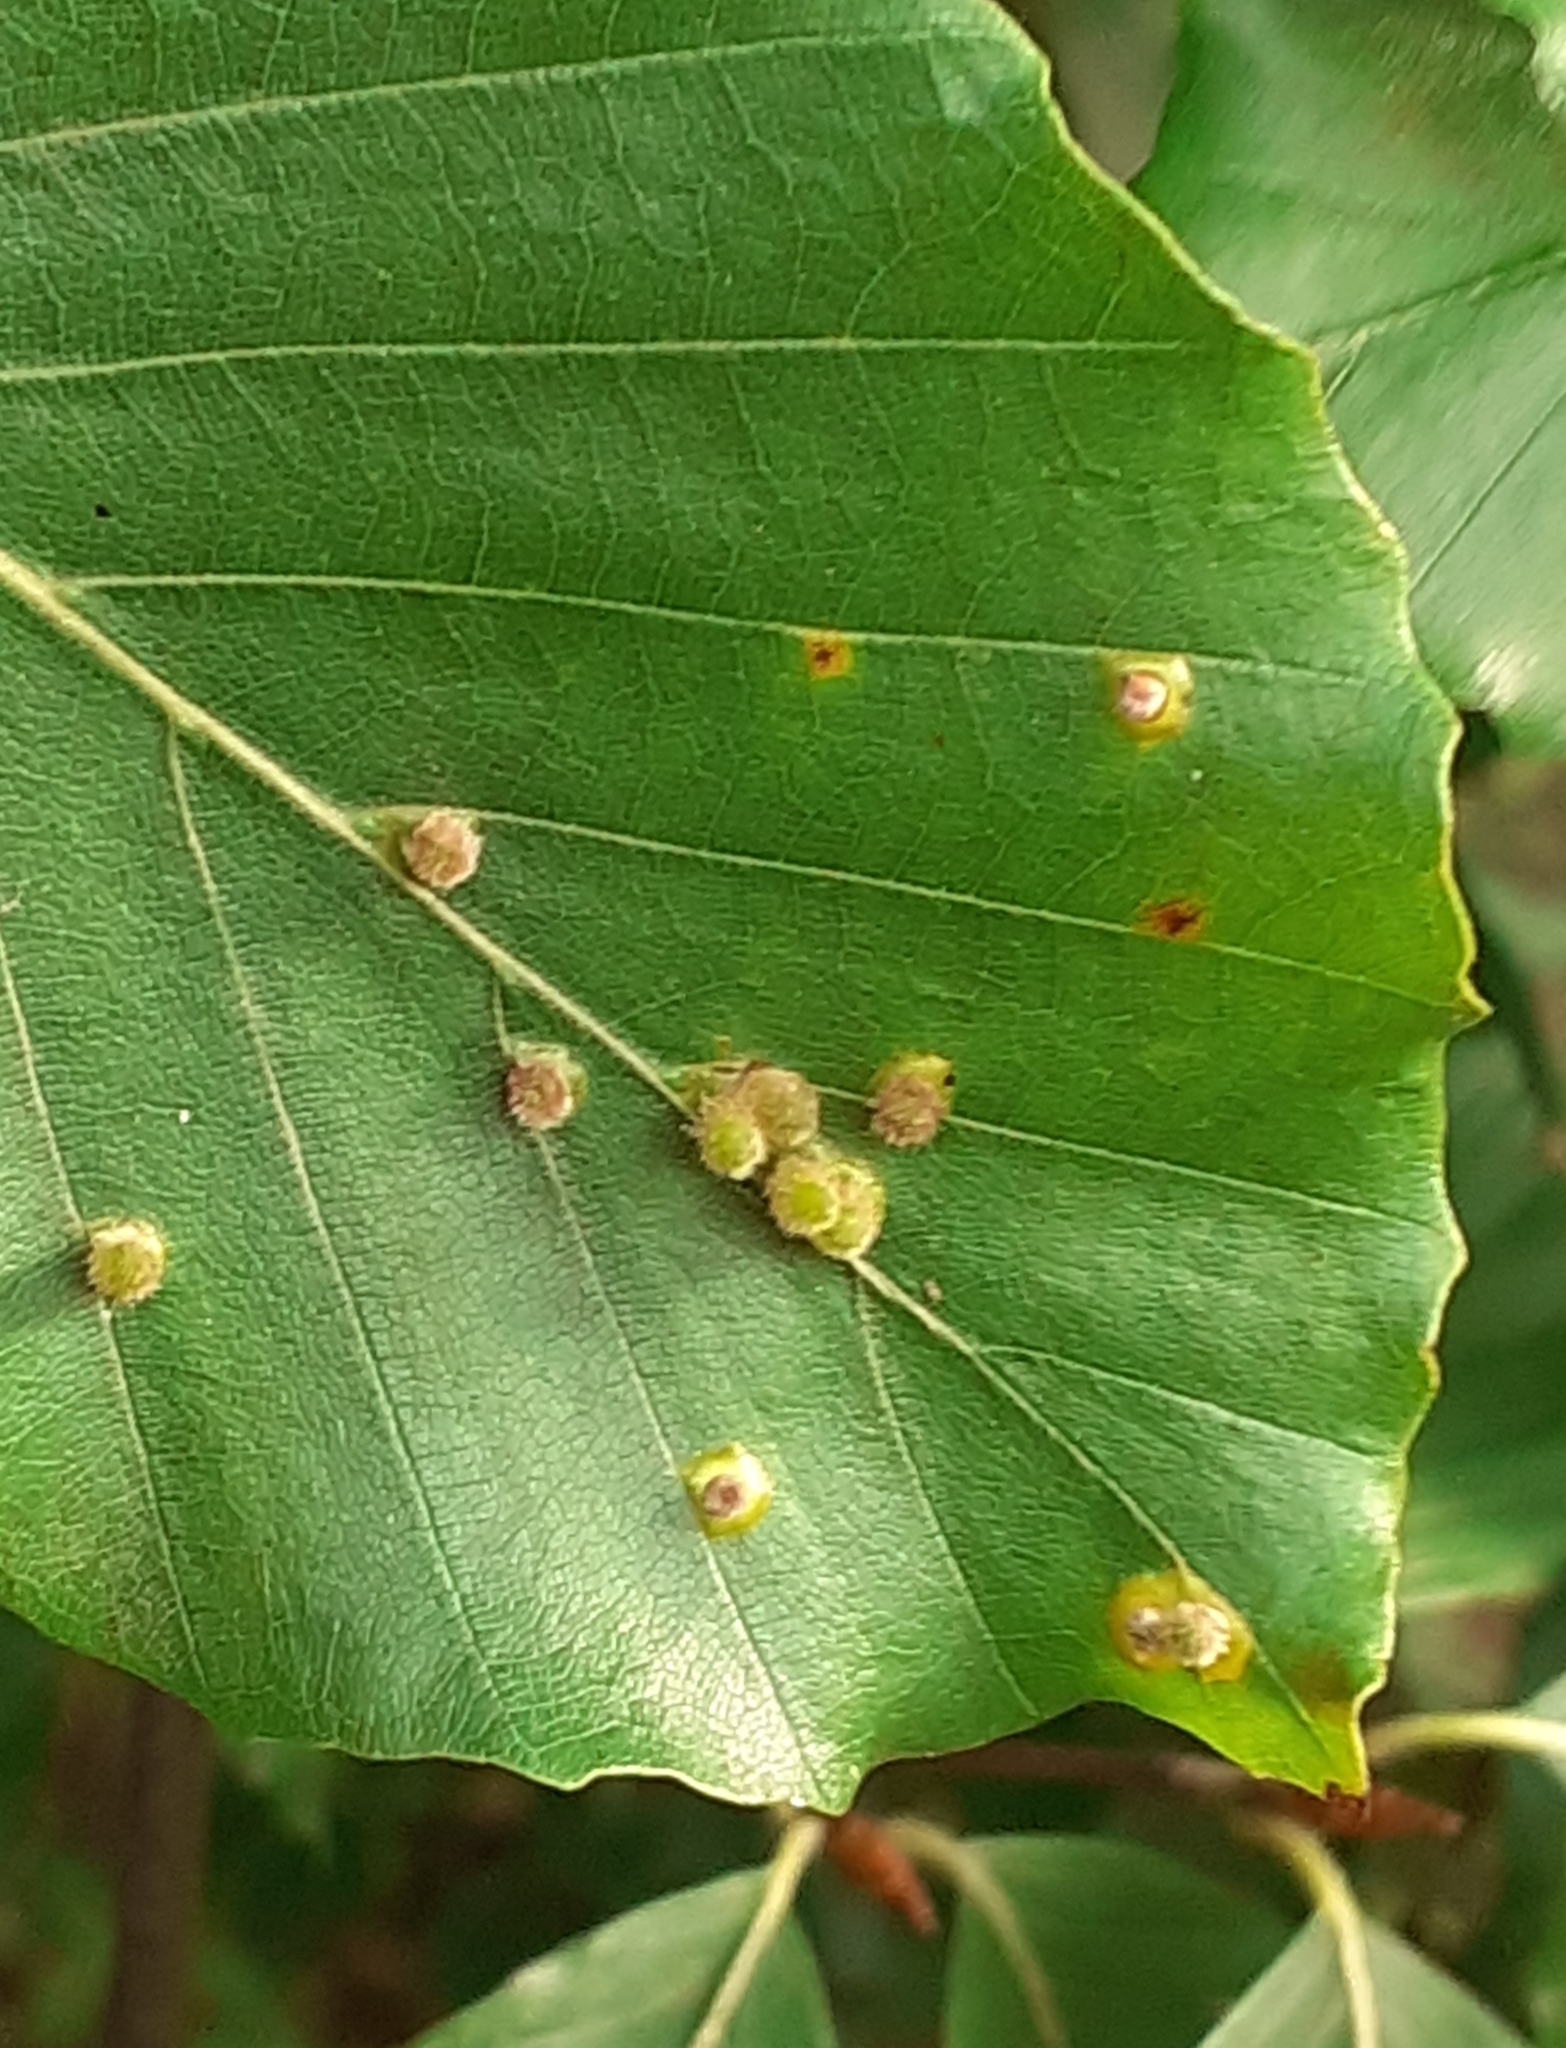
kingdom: Animalia
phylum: Arthropoda
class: Insecta
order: Diptera
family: Cecidomyiidae
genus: Hartigiola
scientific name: Hartigiola annulipes
